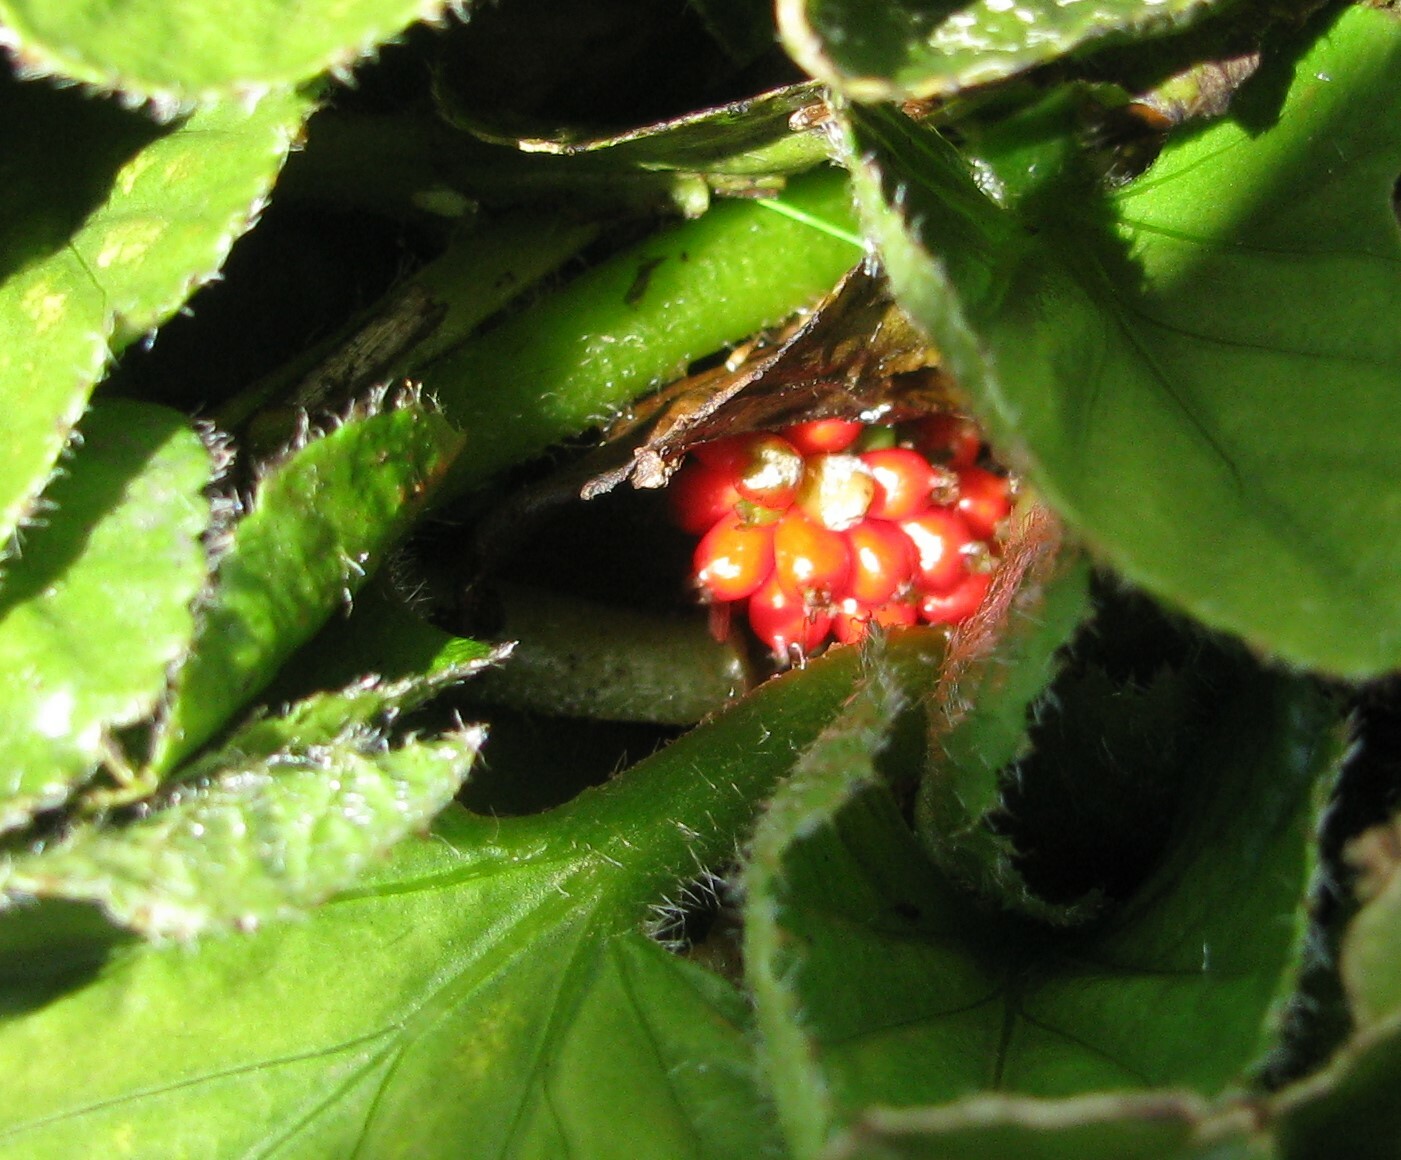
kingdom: Plantae
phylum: Tracheophyta
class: Magnoliopsida
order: Gunnerales
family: Gunneraceae
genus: Gunnera
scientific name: Gunnera cordifolia
